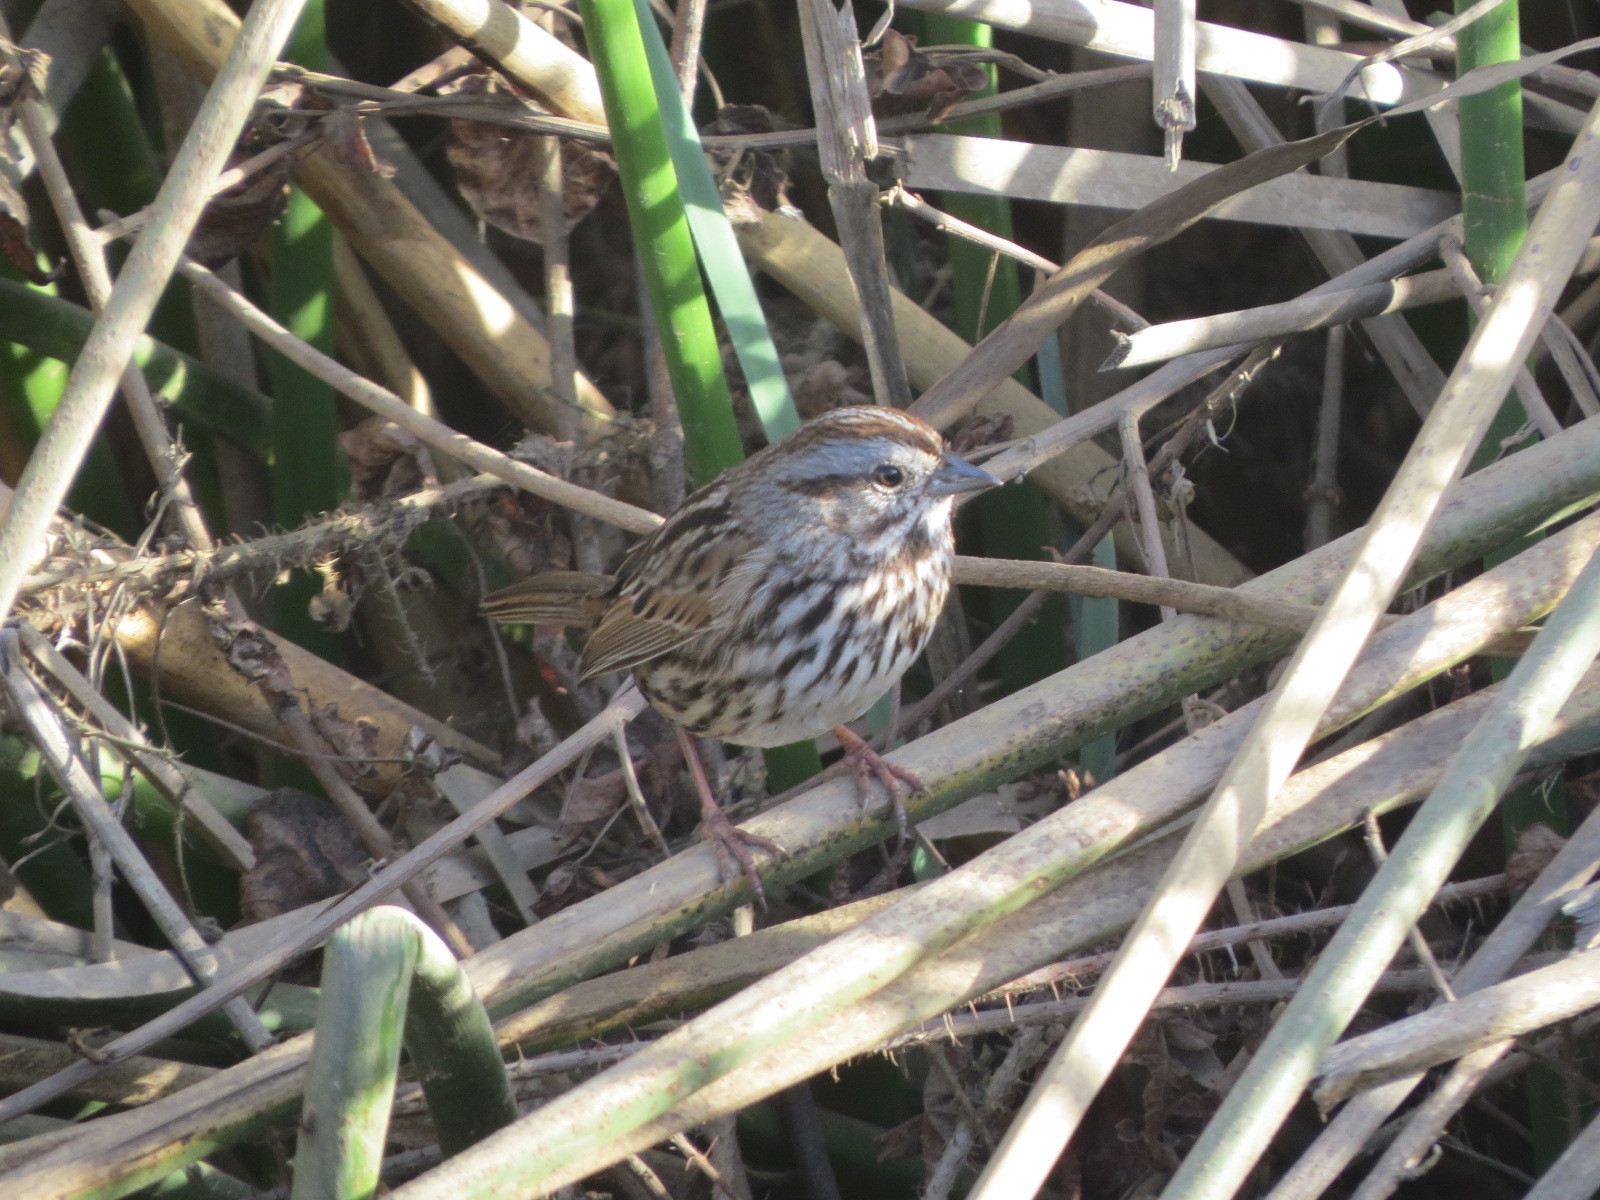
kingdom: Animalia
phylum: Chordata
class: Aves
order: Passeriformes
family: Passerellidae
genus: Melospiza
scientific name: Melospiza melodia
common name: Song sparrow
